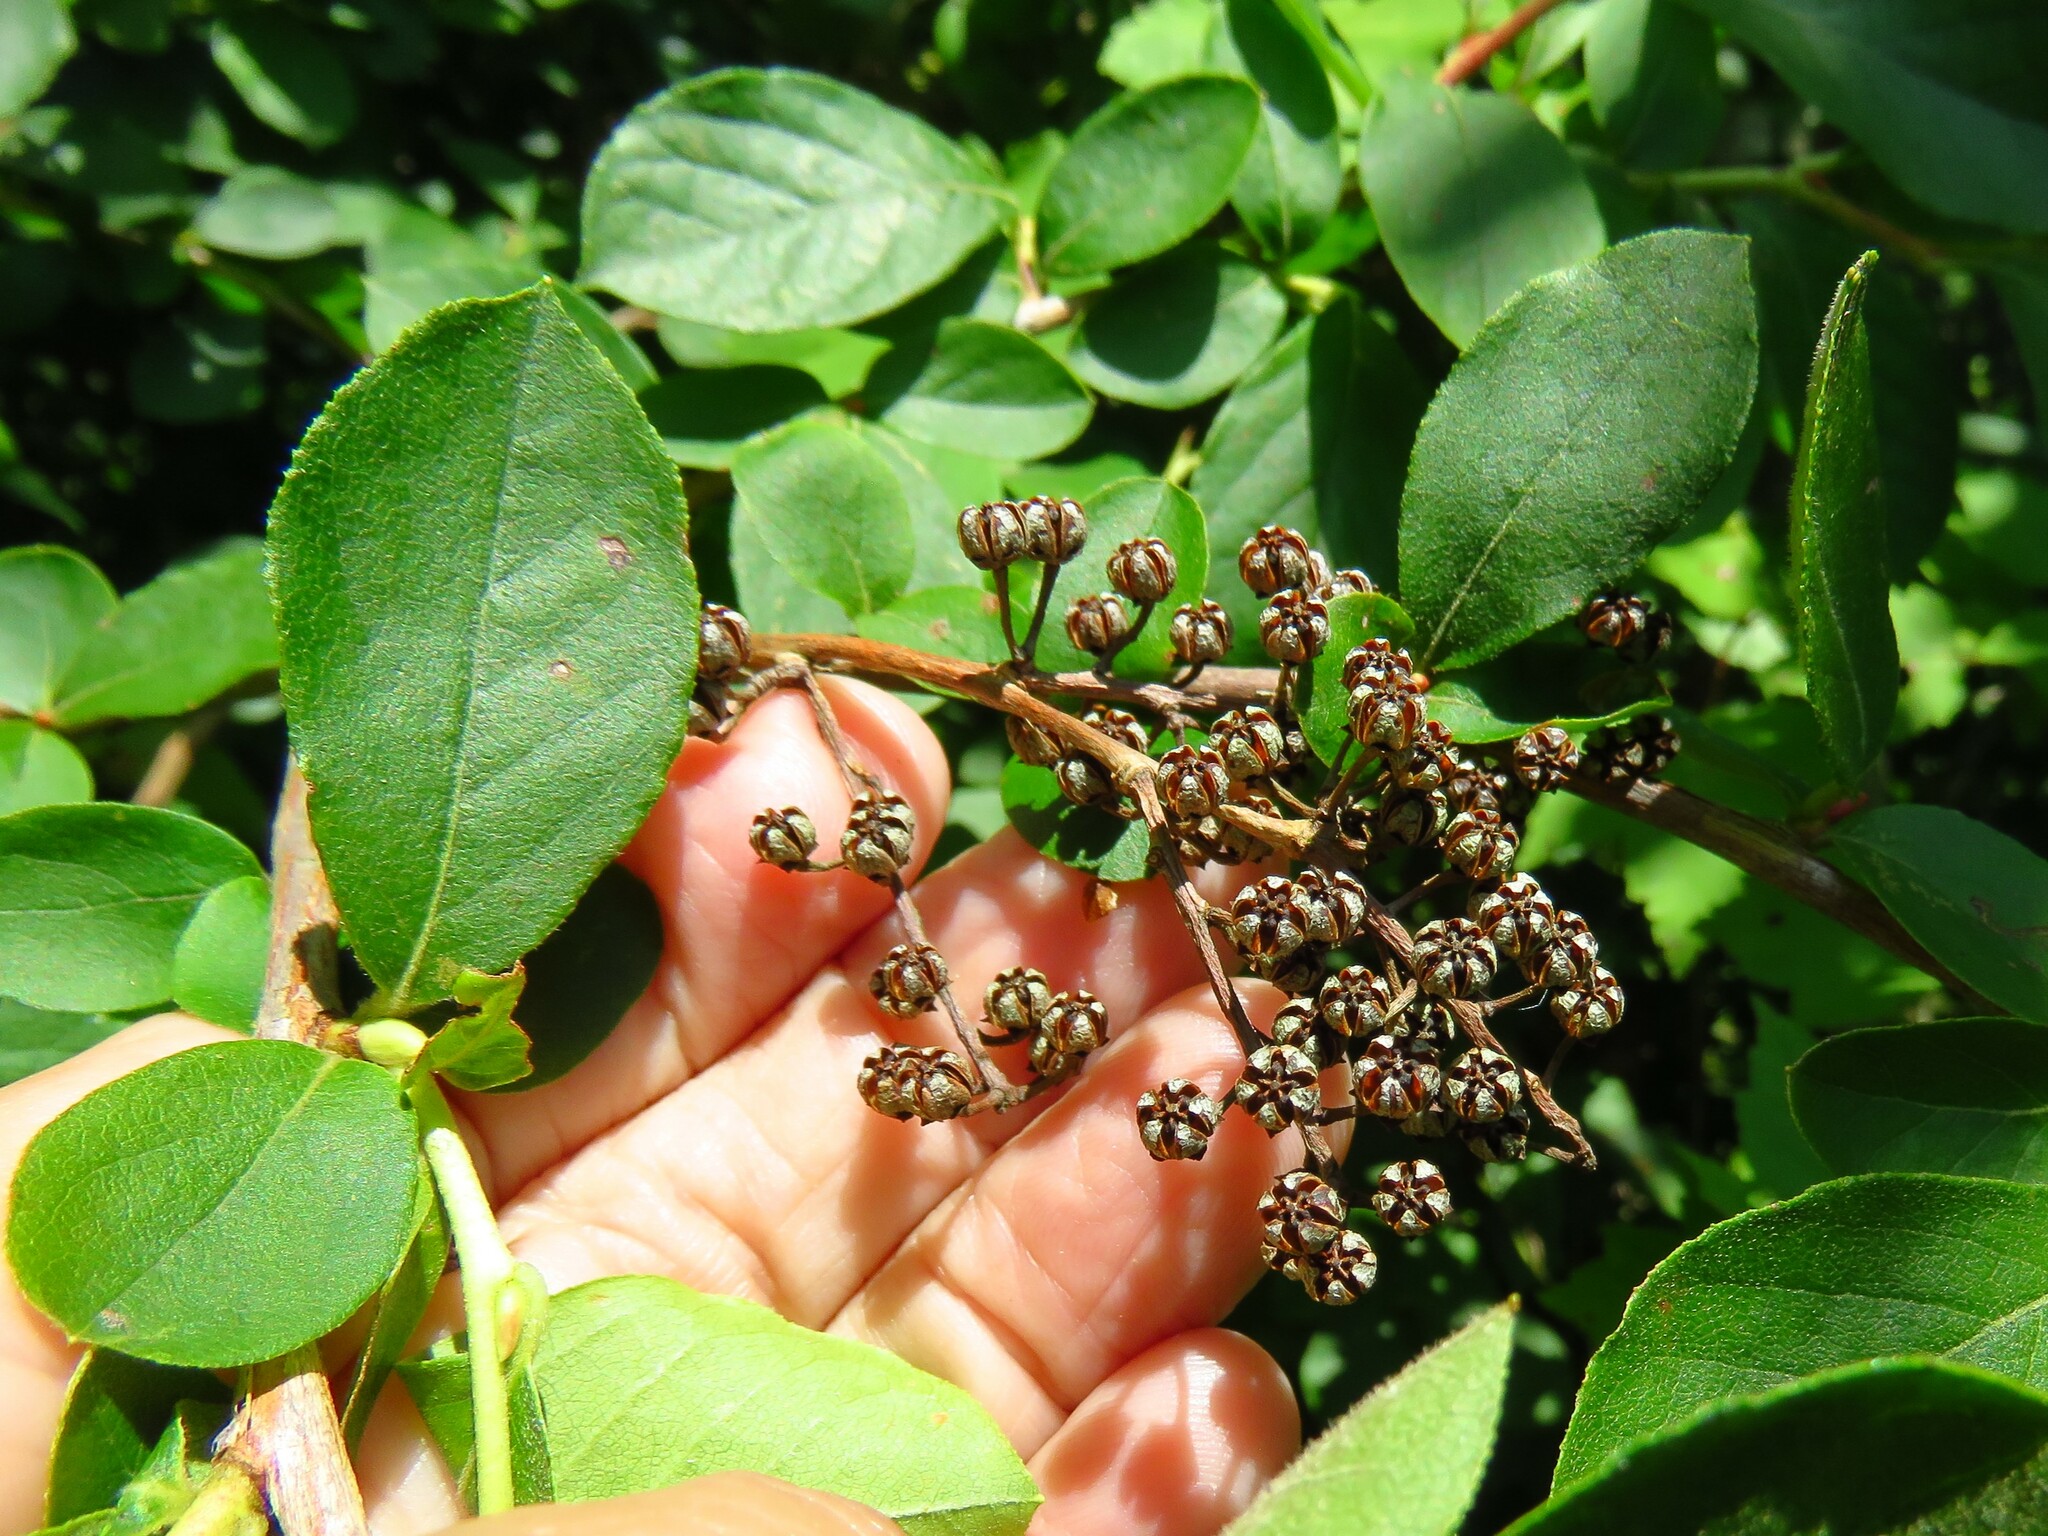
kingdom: Plantae
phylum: Tracheophyta
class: Magnoliopsida
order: Ericales
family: Ericaceae
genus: Lyonia
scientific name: Lyonia ligustrina
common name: Maleberry
